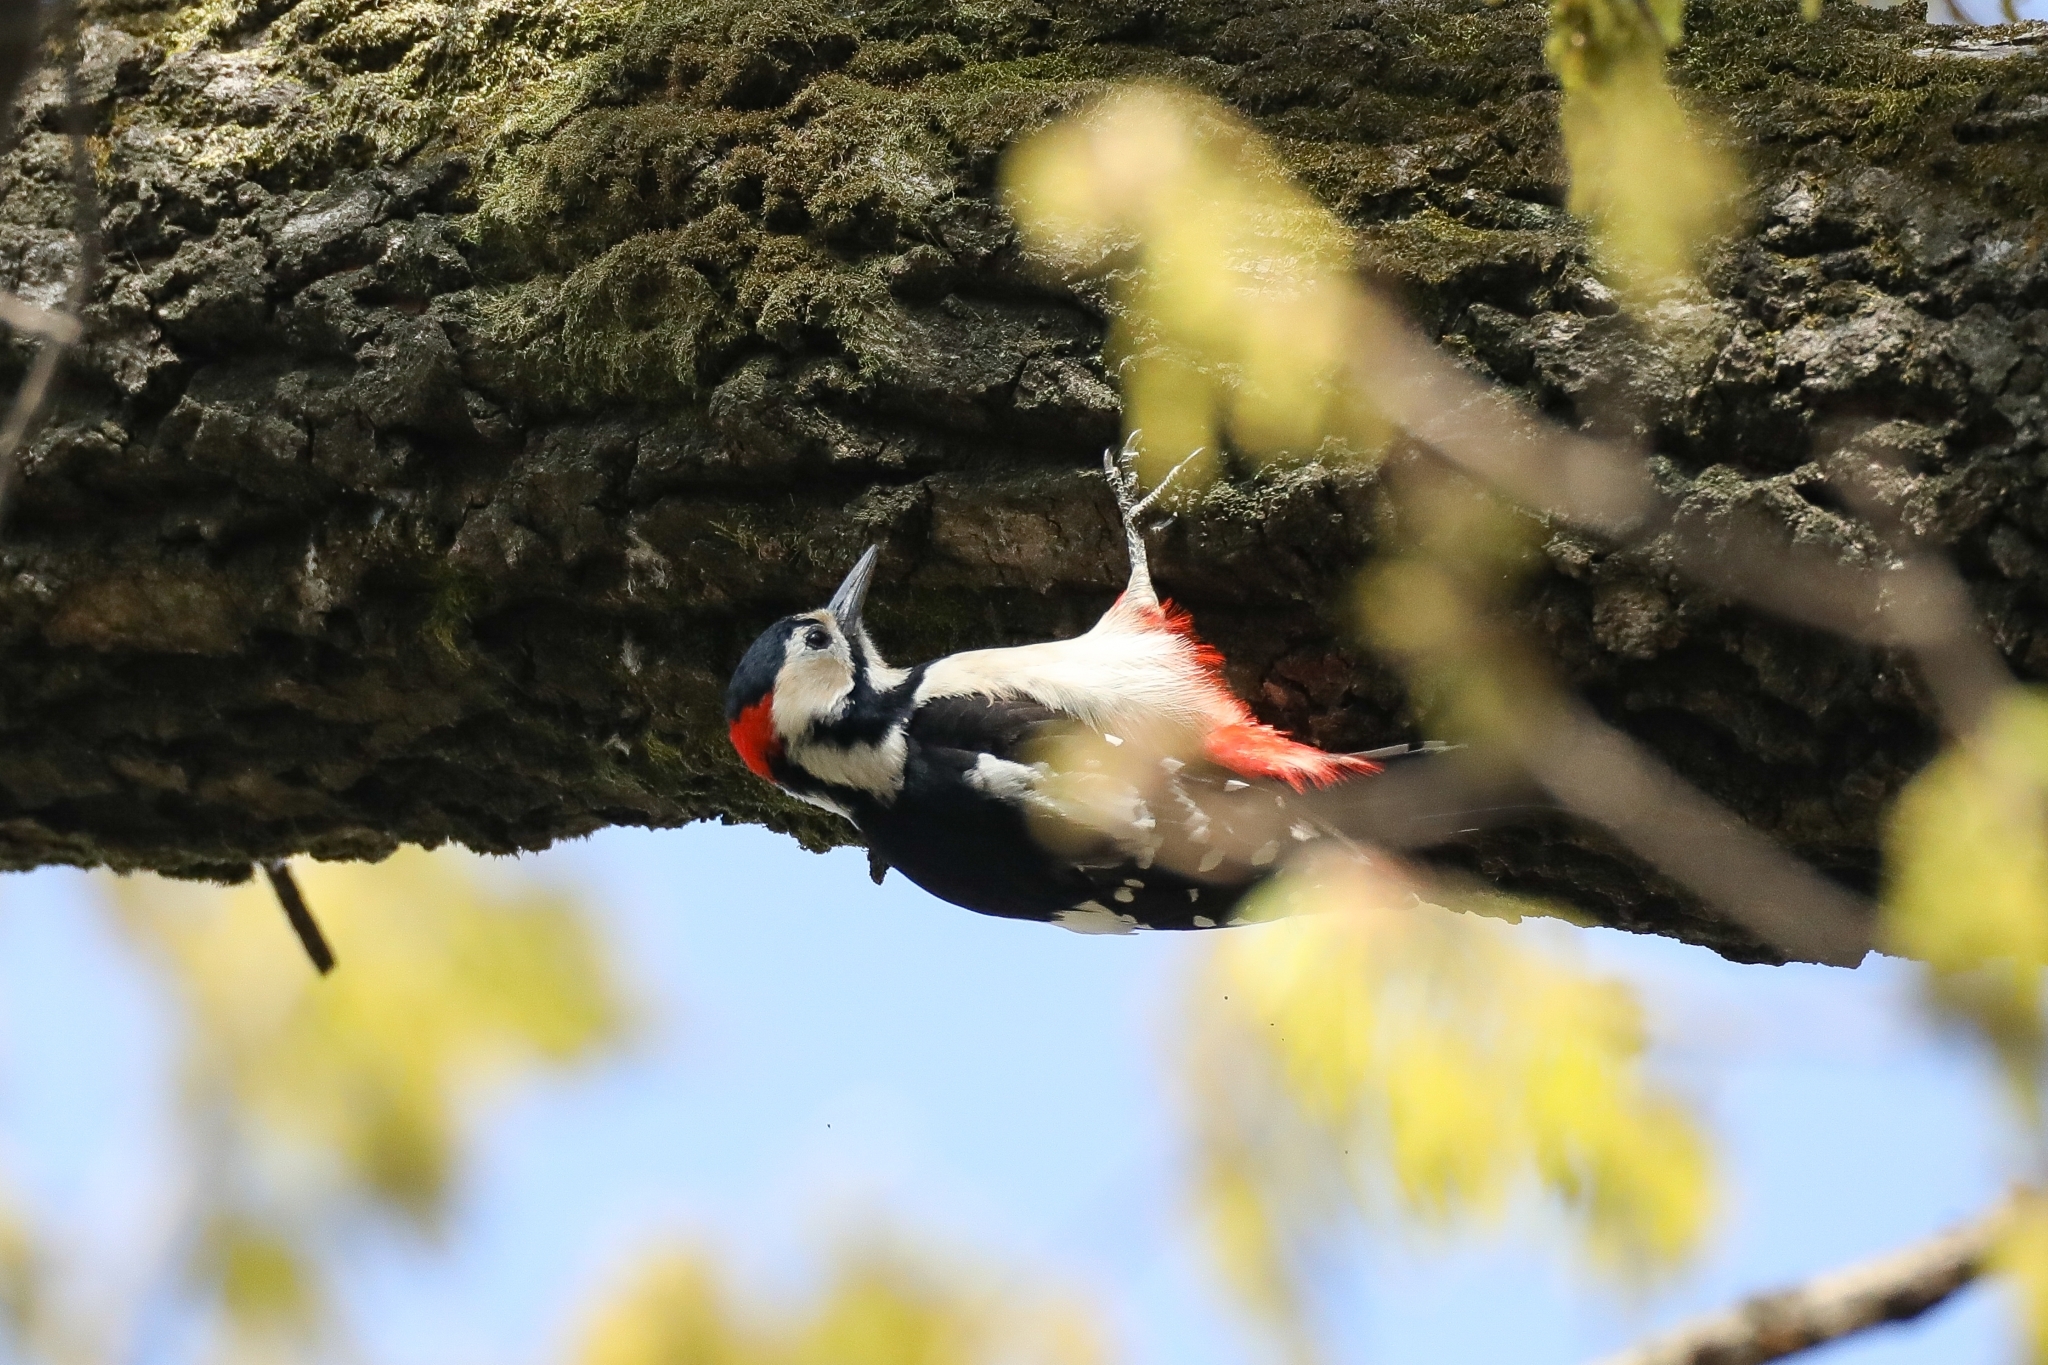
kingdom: Animalia
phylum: Chordata
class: Aves
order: Piciformes
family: Picidae
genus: Dendrocopos
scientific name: Dendrocopos major
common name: Great spotted woodpecker
